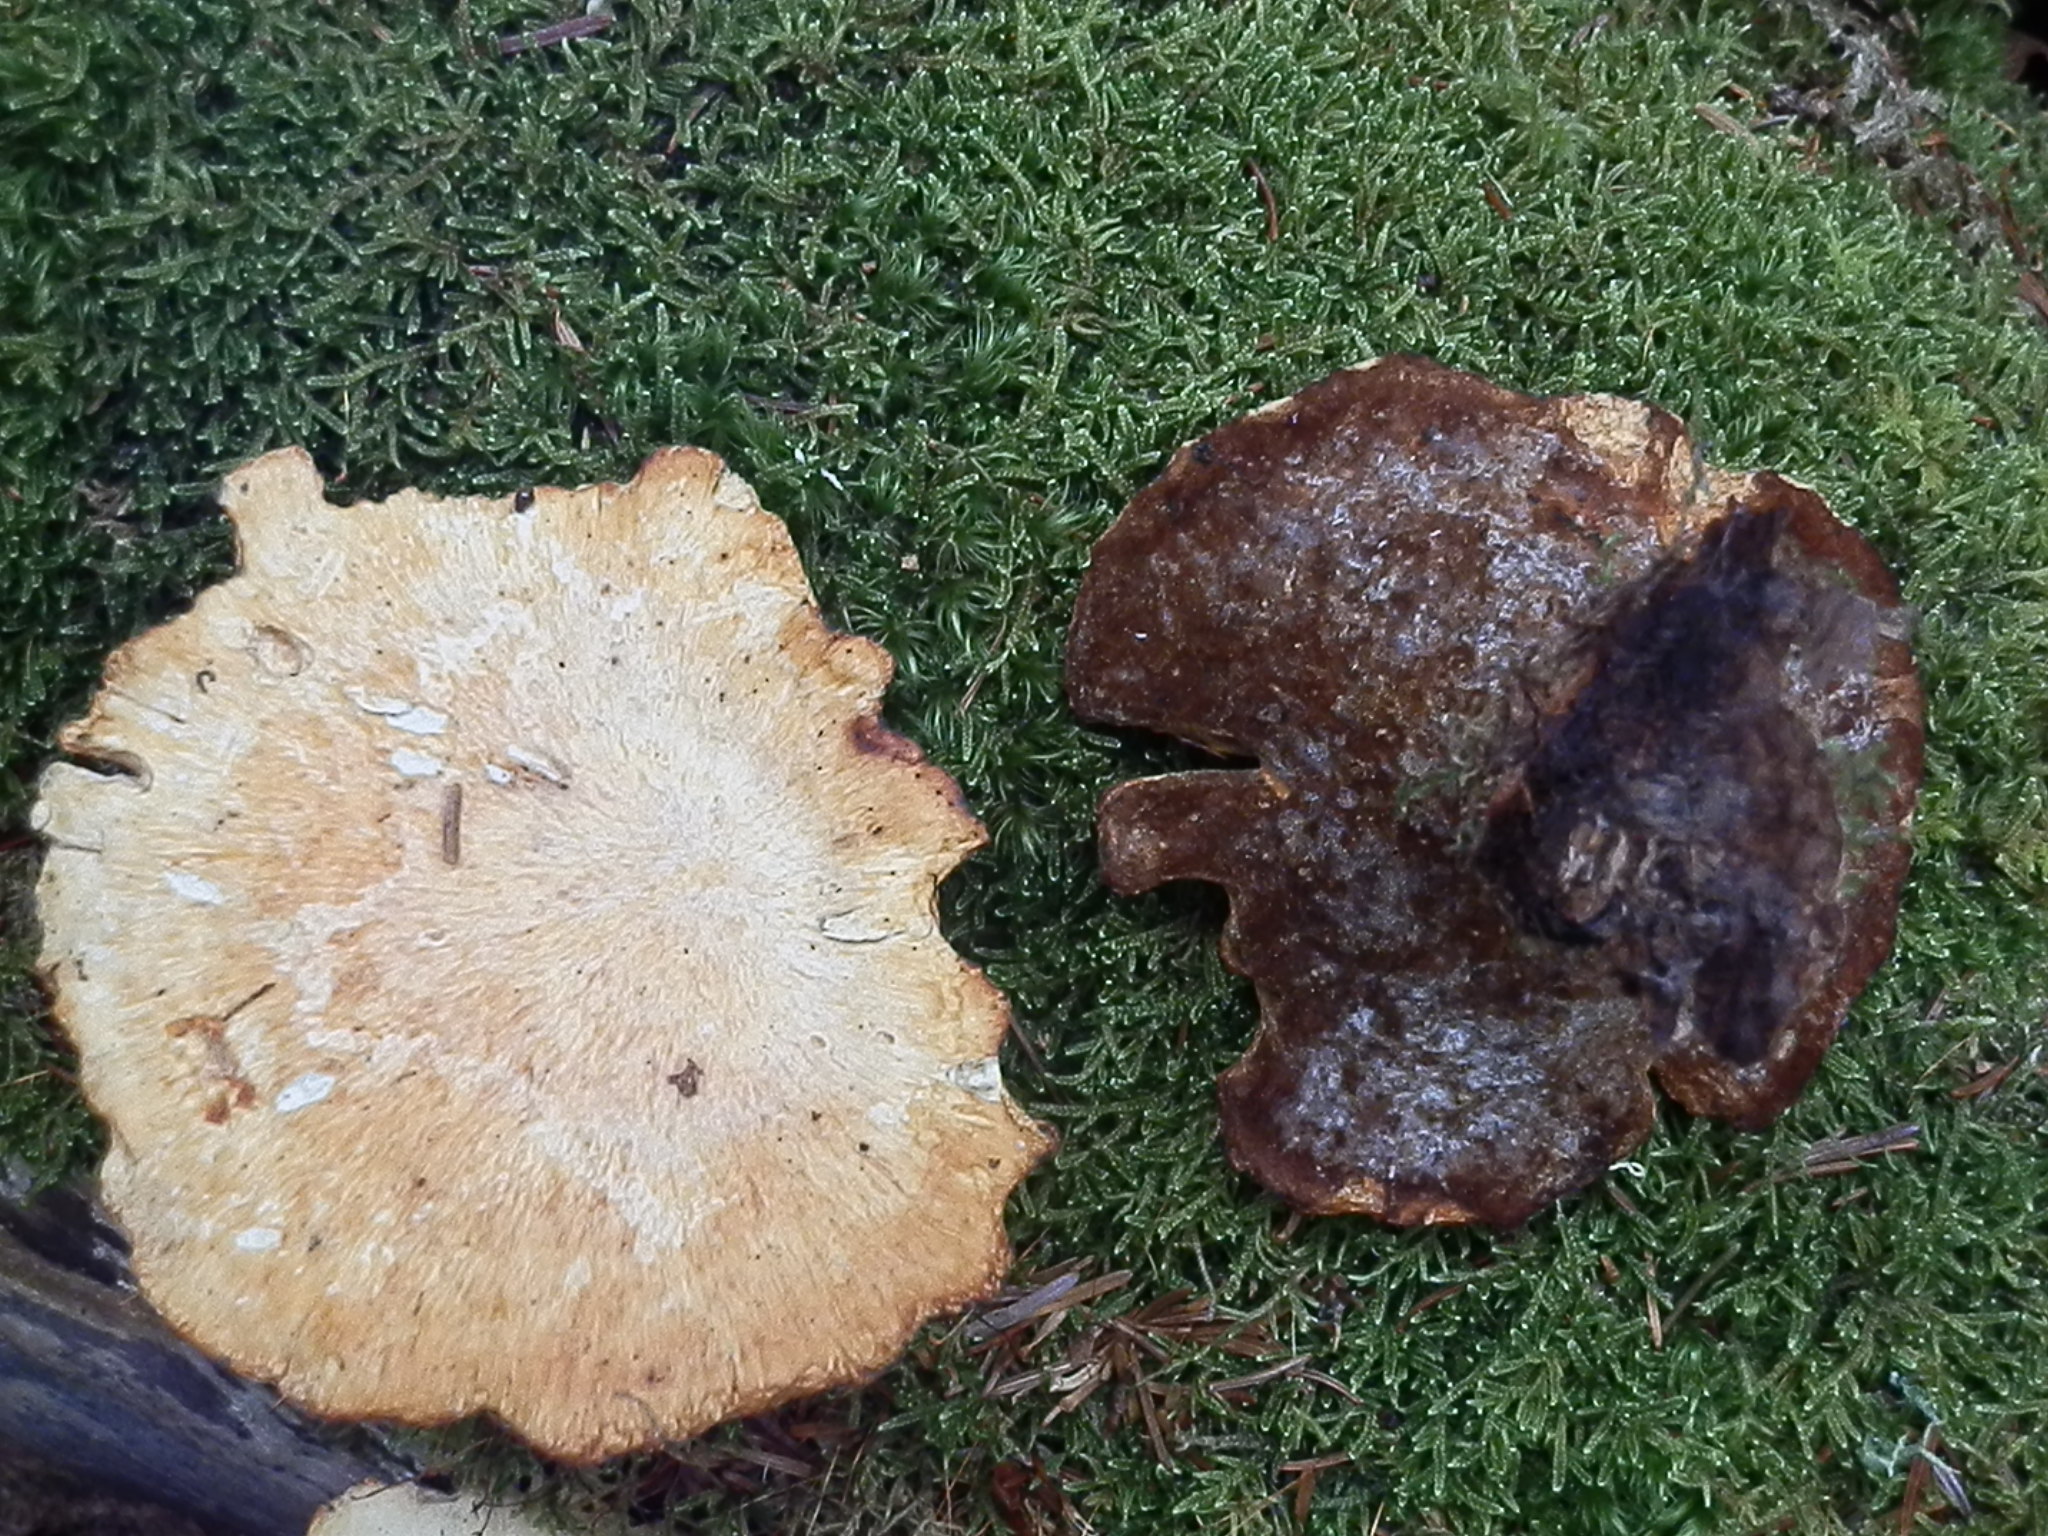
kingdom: Fungi
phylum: Basidiomycota
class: Agaricomycetes
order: Polyporales
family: Polyporaceae
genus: Cerioporus
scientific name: Cerioporus leptocephalus
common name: Blackfoot polypore
